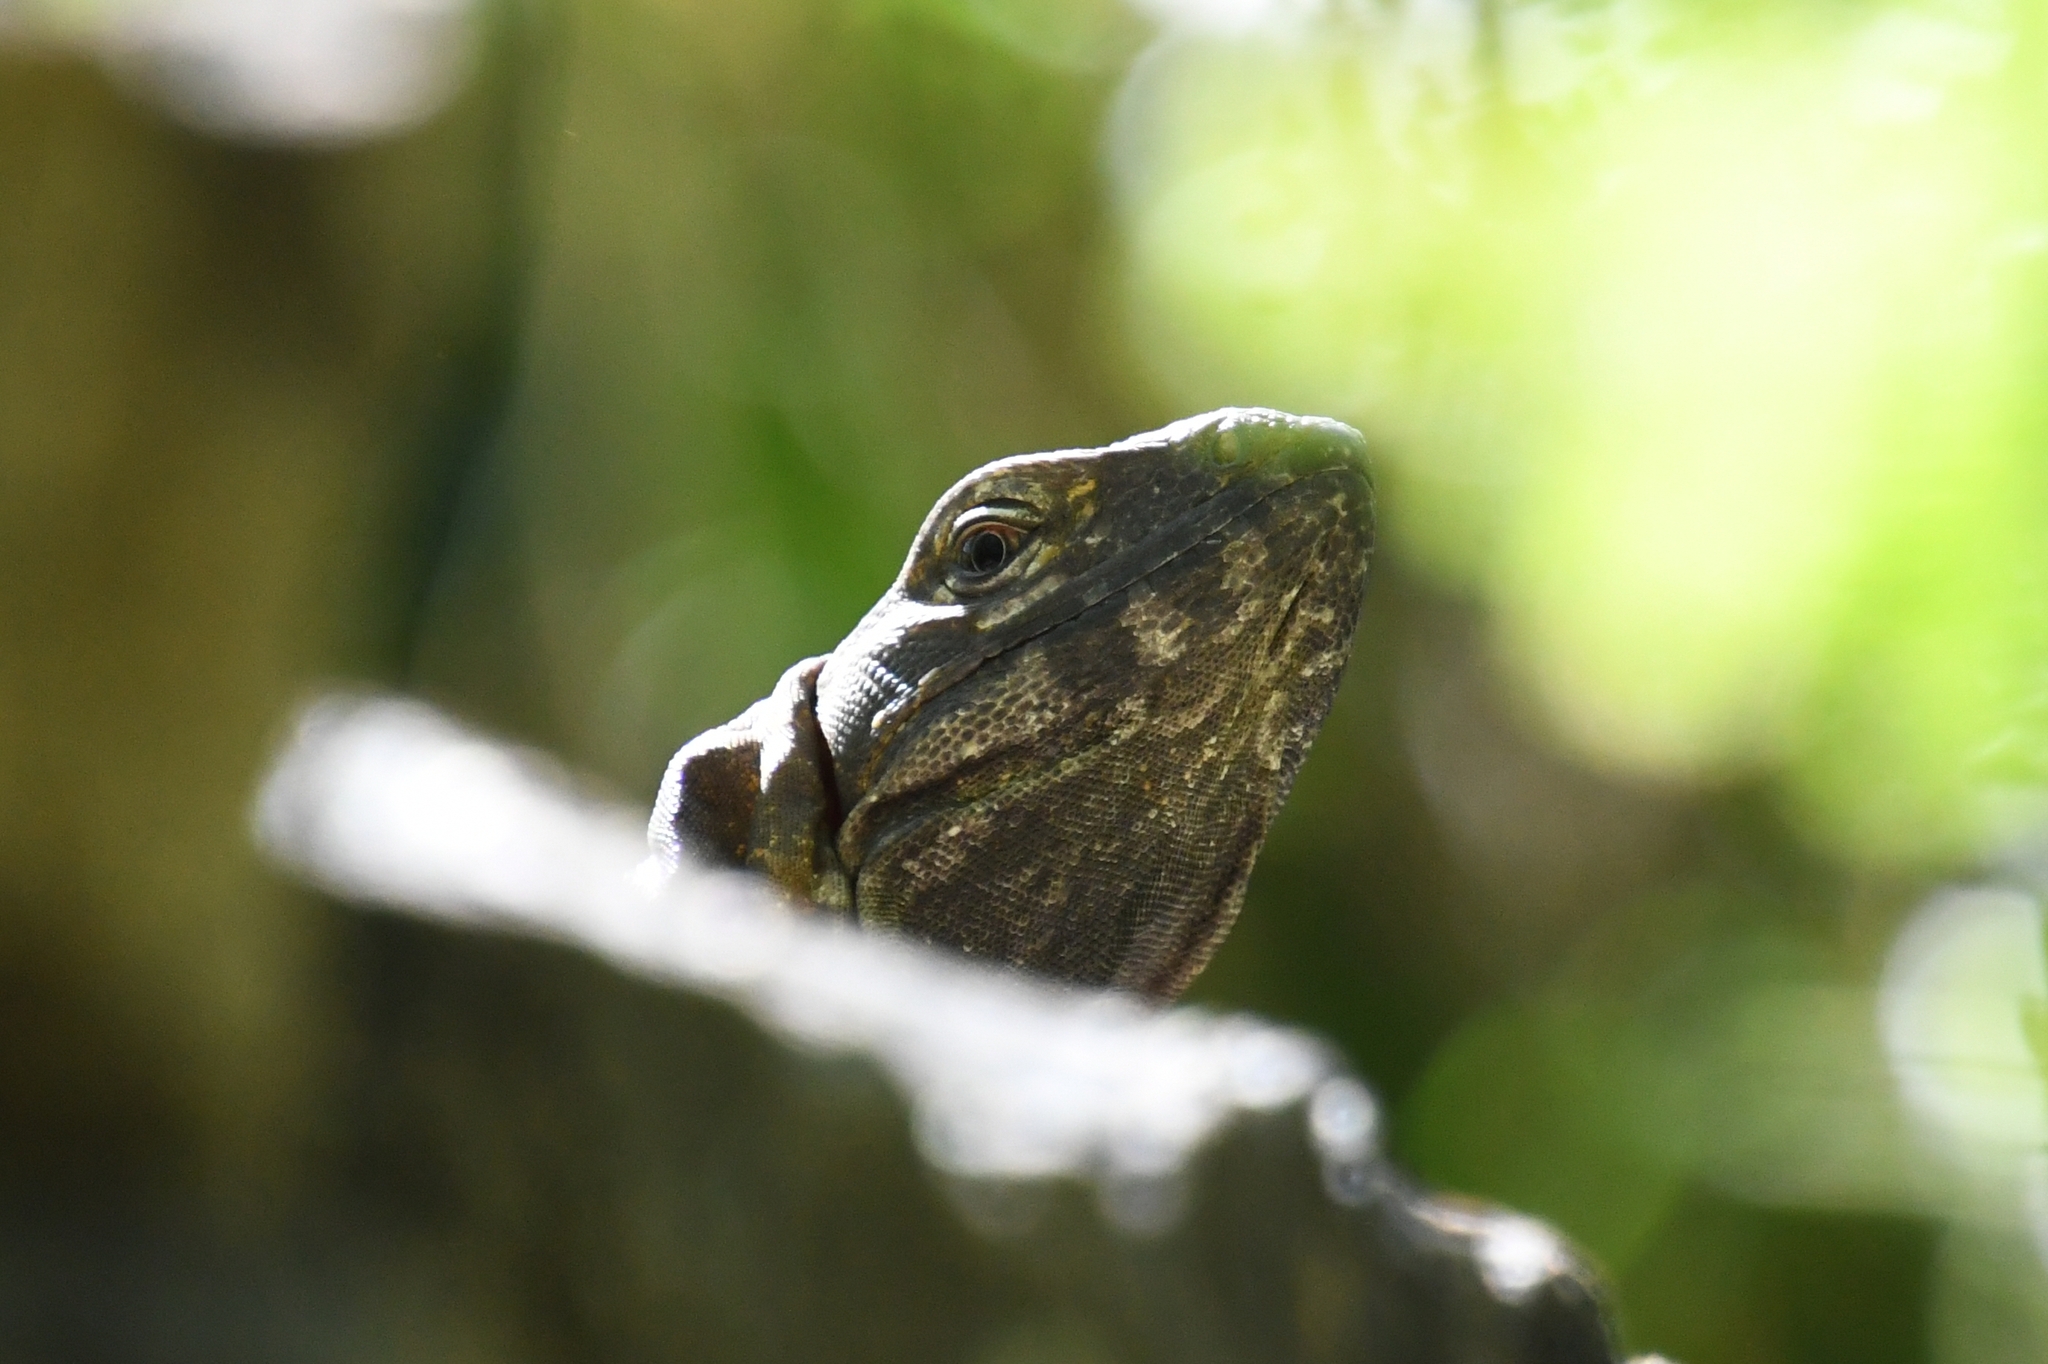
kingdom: Animalia
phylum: Chordata
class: Squamata
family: Iguanidae
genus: Ctenosaura
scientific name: Ctenosaura
